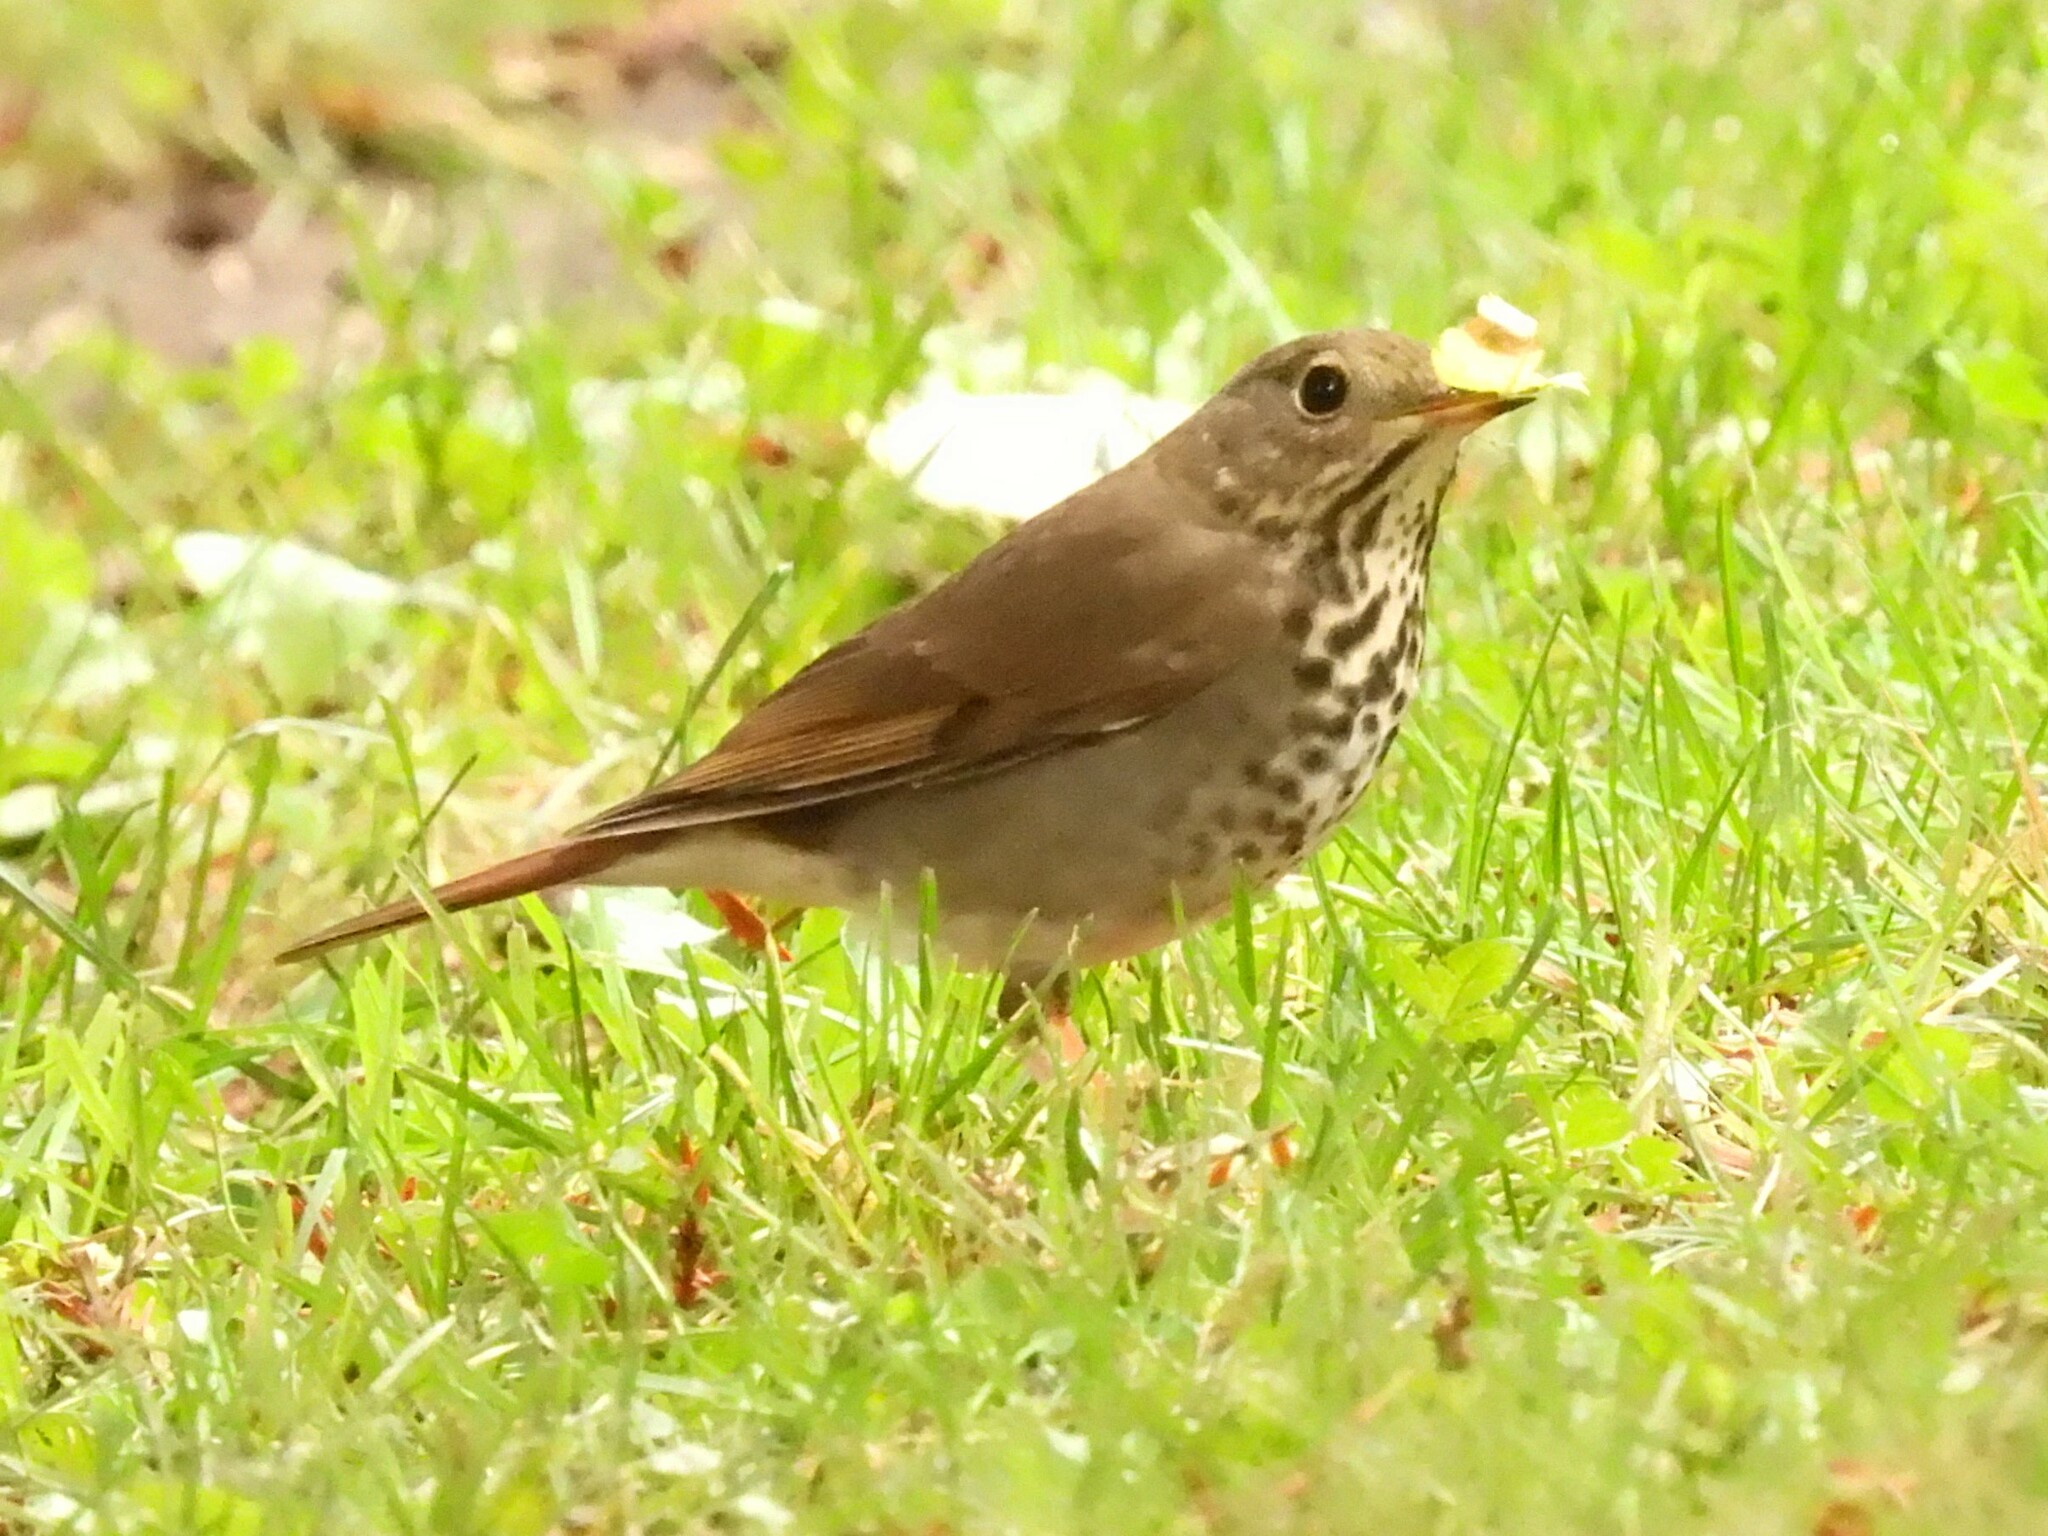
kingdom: Animalia
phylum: Chordata
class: Aves
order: Passeriformes
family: Turdidae
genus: Catharus
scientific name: Catharus guttatus
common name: Hermit thrush
